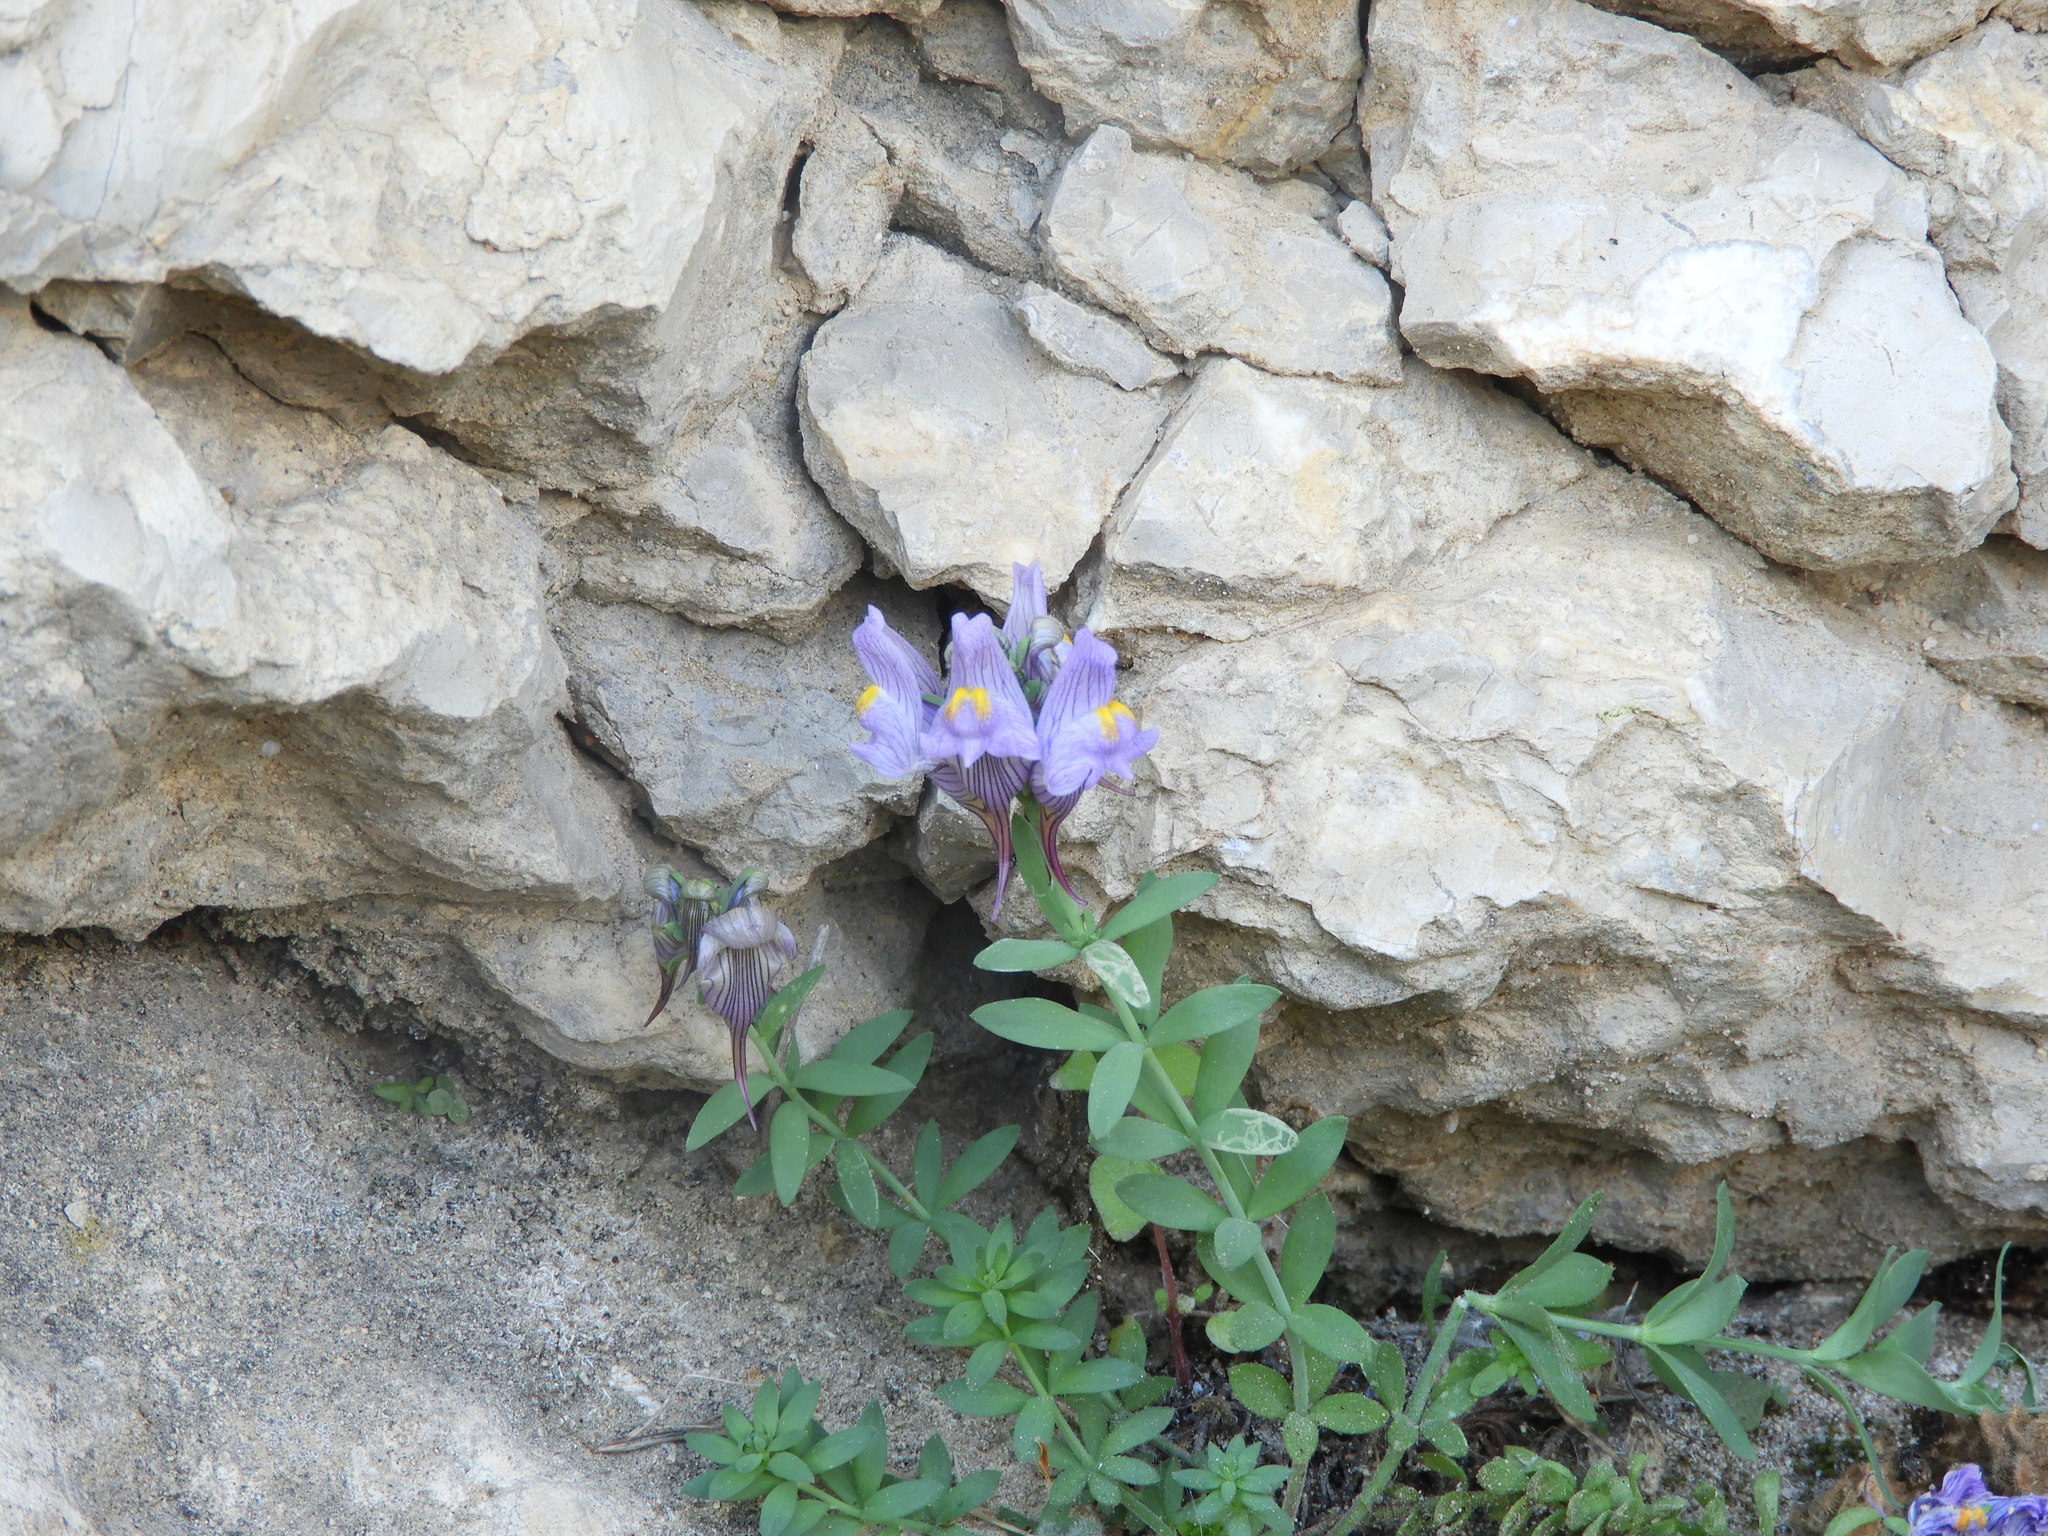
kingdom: Plantae
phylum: Tracheophyta
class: Magnoliopsida
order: Lamiales
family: Plantaginaceae
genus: Linaria
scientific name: Linaria verticillata
